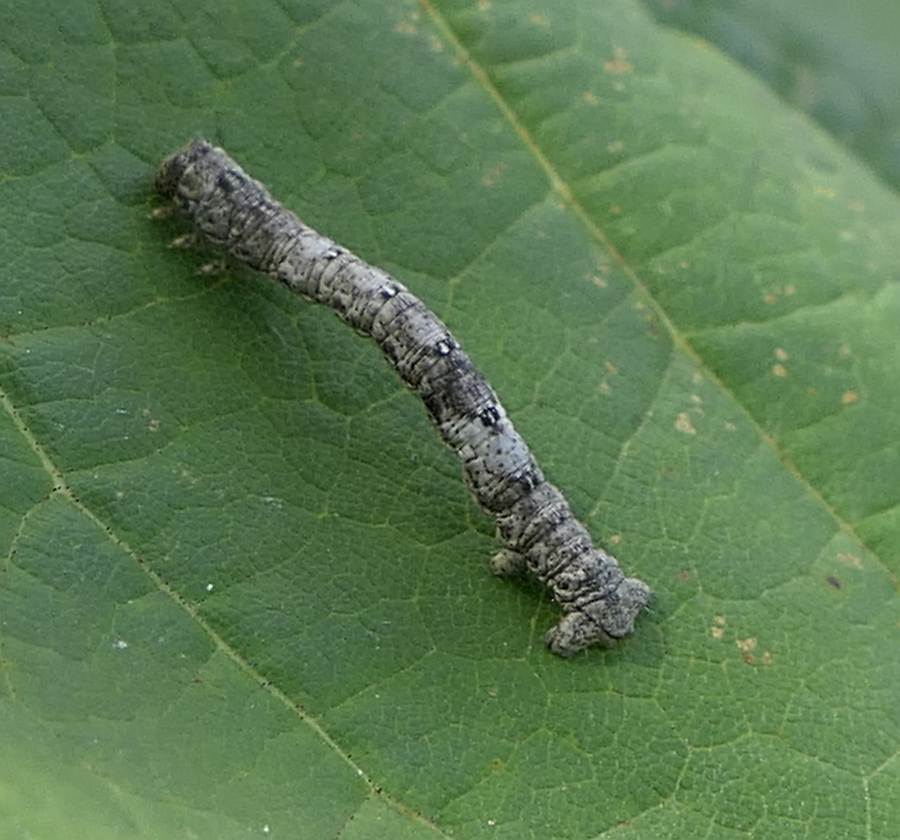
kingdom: Animalia
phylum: Arthropoda
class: Insecta
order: Lepidoptera
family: Geometridae
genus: Hypagyrtis
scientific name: Hypagyrtis unipunctata
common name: One-spotted variant
